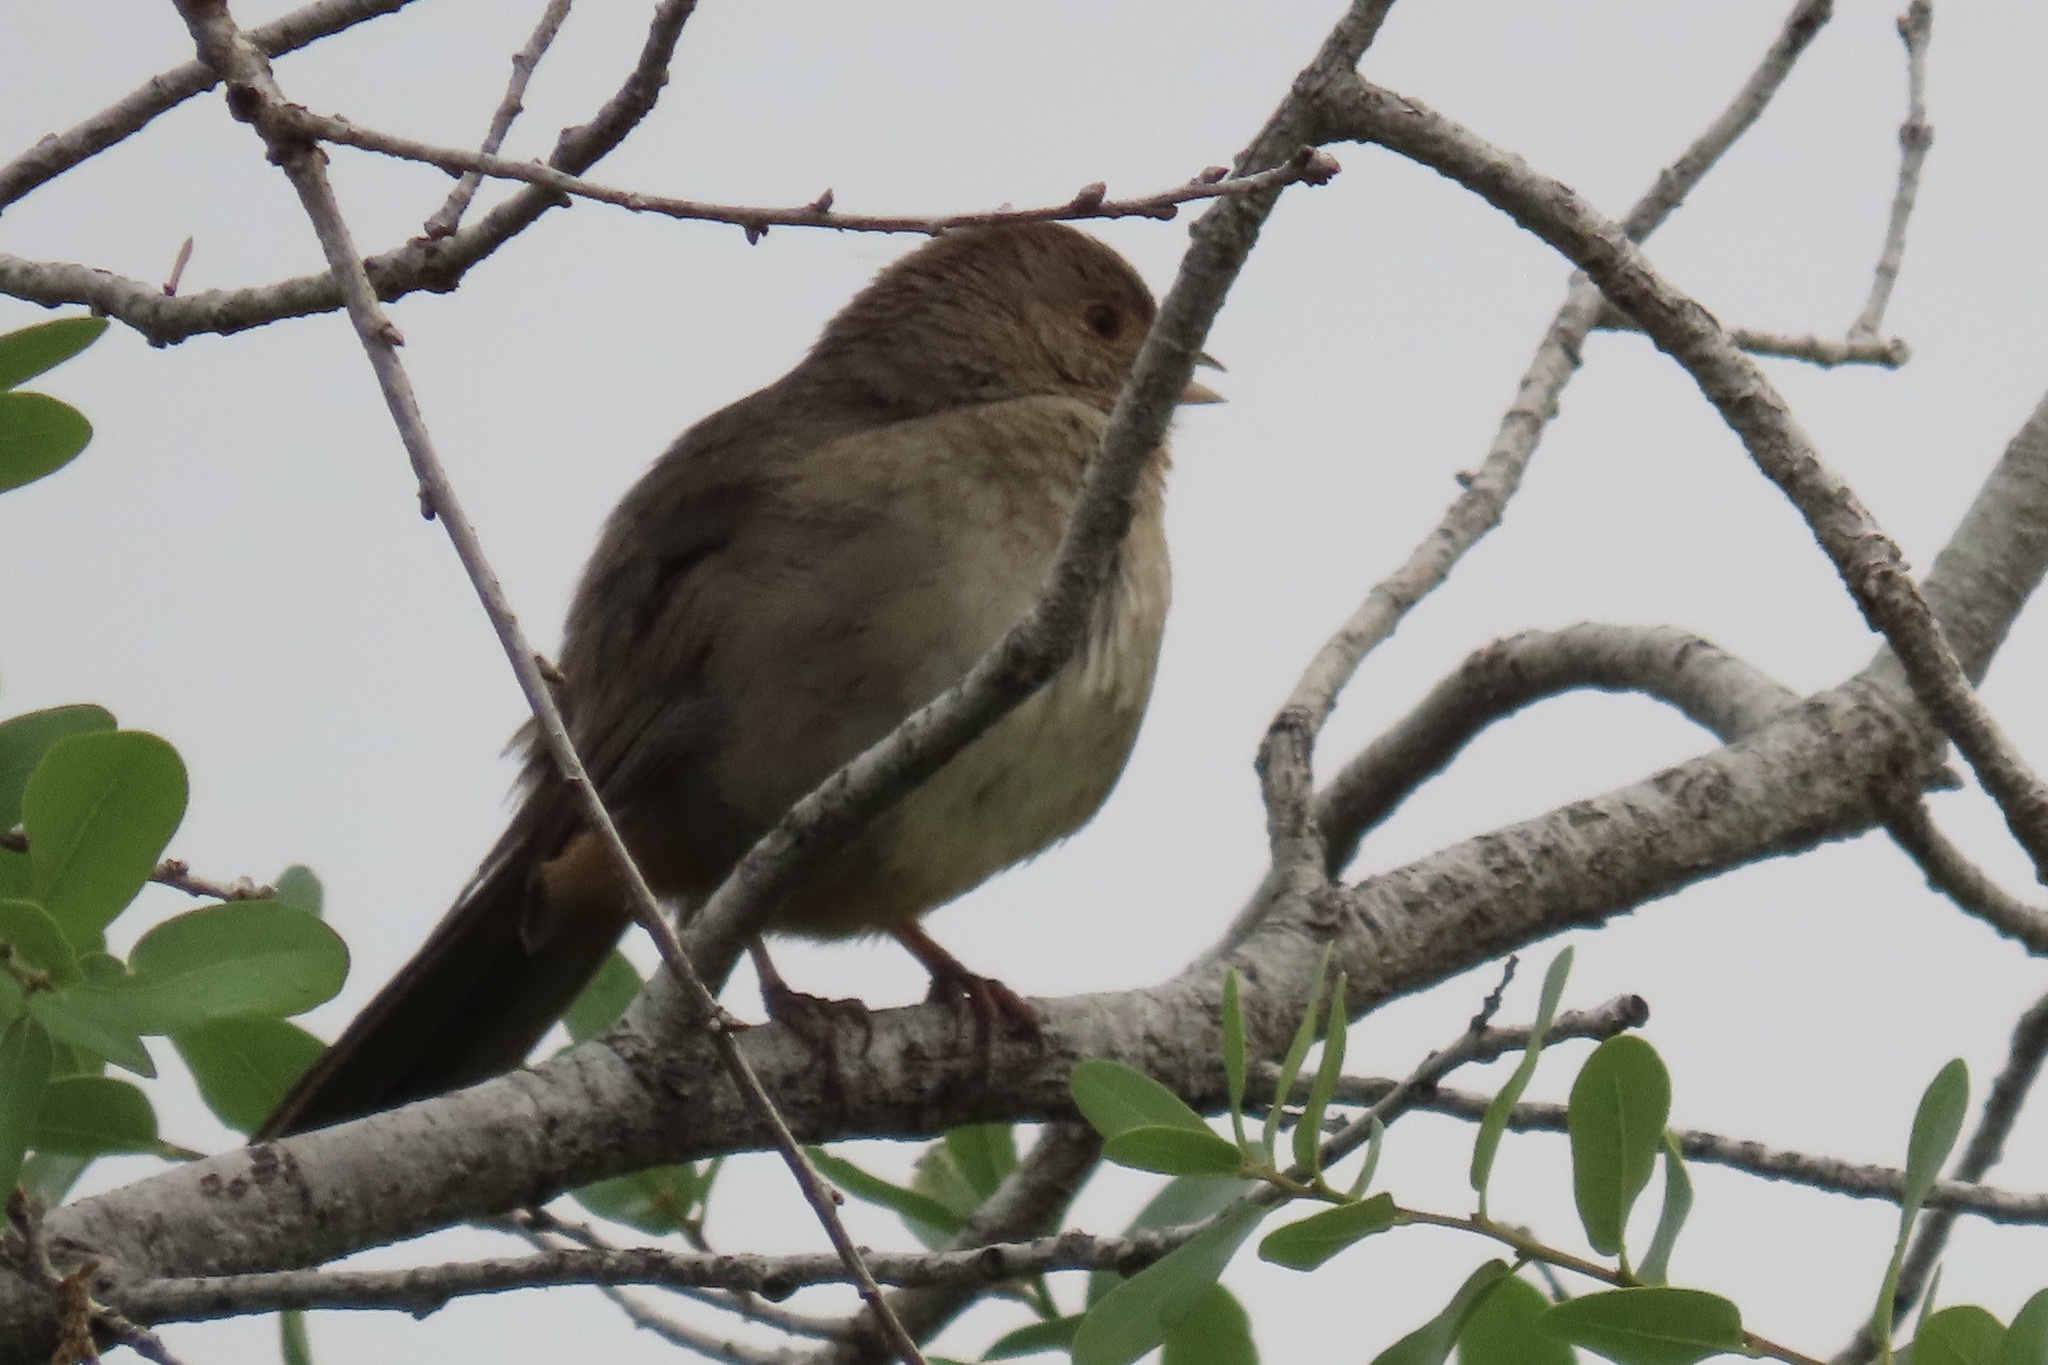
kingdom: Animalia
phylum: Chordata
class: Aves
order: Passeriformes
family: Passerellidae
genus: Melozone
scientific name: Melozone crissalis
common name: California towhee
